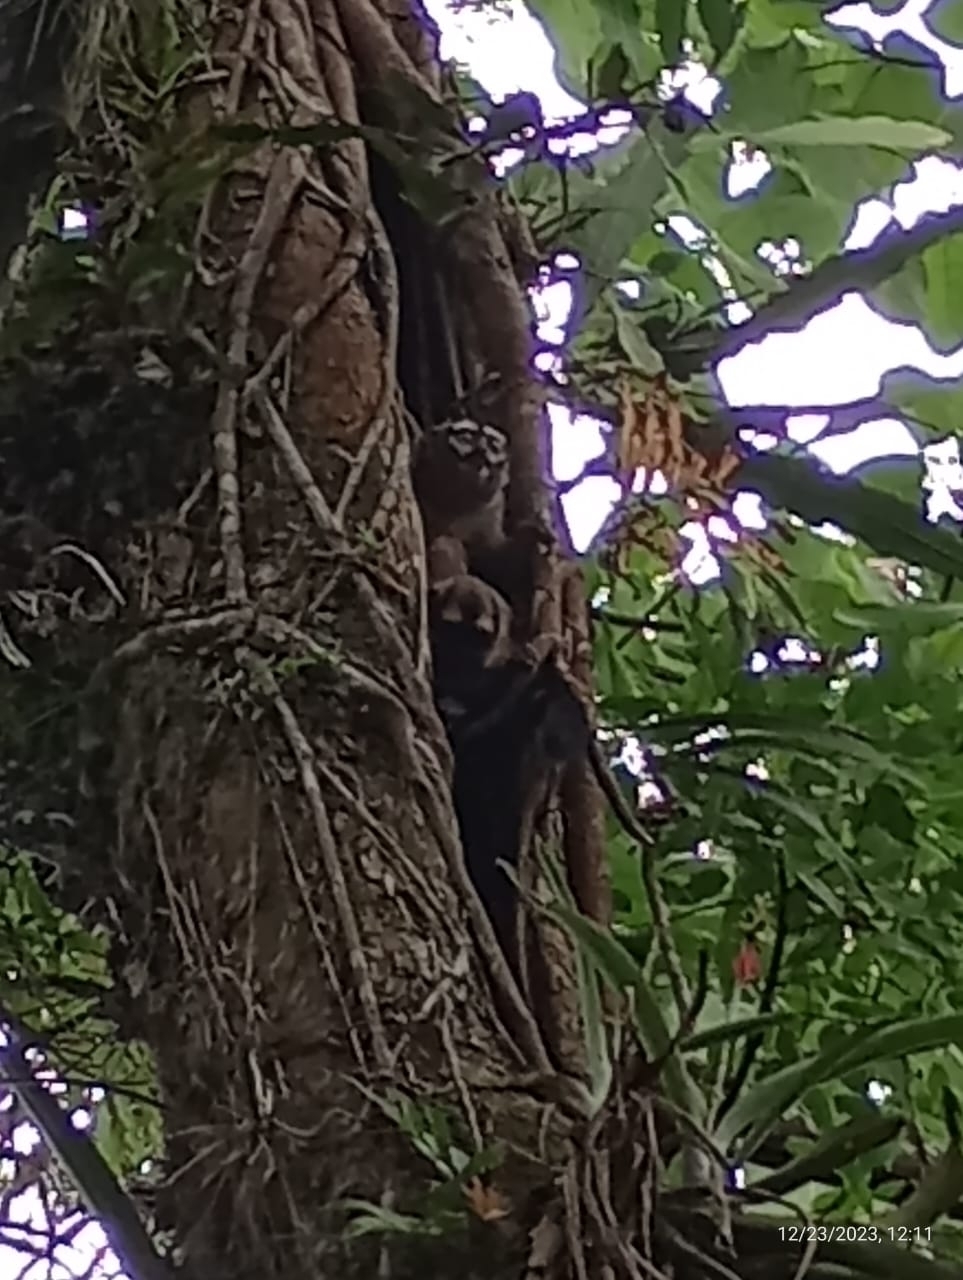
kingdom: Animalia
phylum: Chordata
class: Mammalia
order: Primates
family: Aotidae
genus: Aotus
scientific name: Aotus brumbacki
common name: Brumback's night monkey
